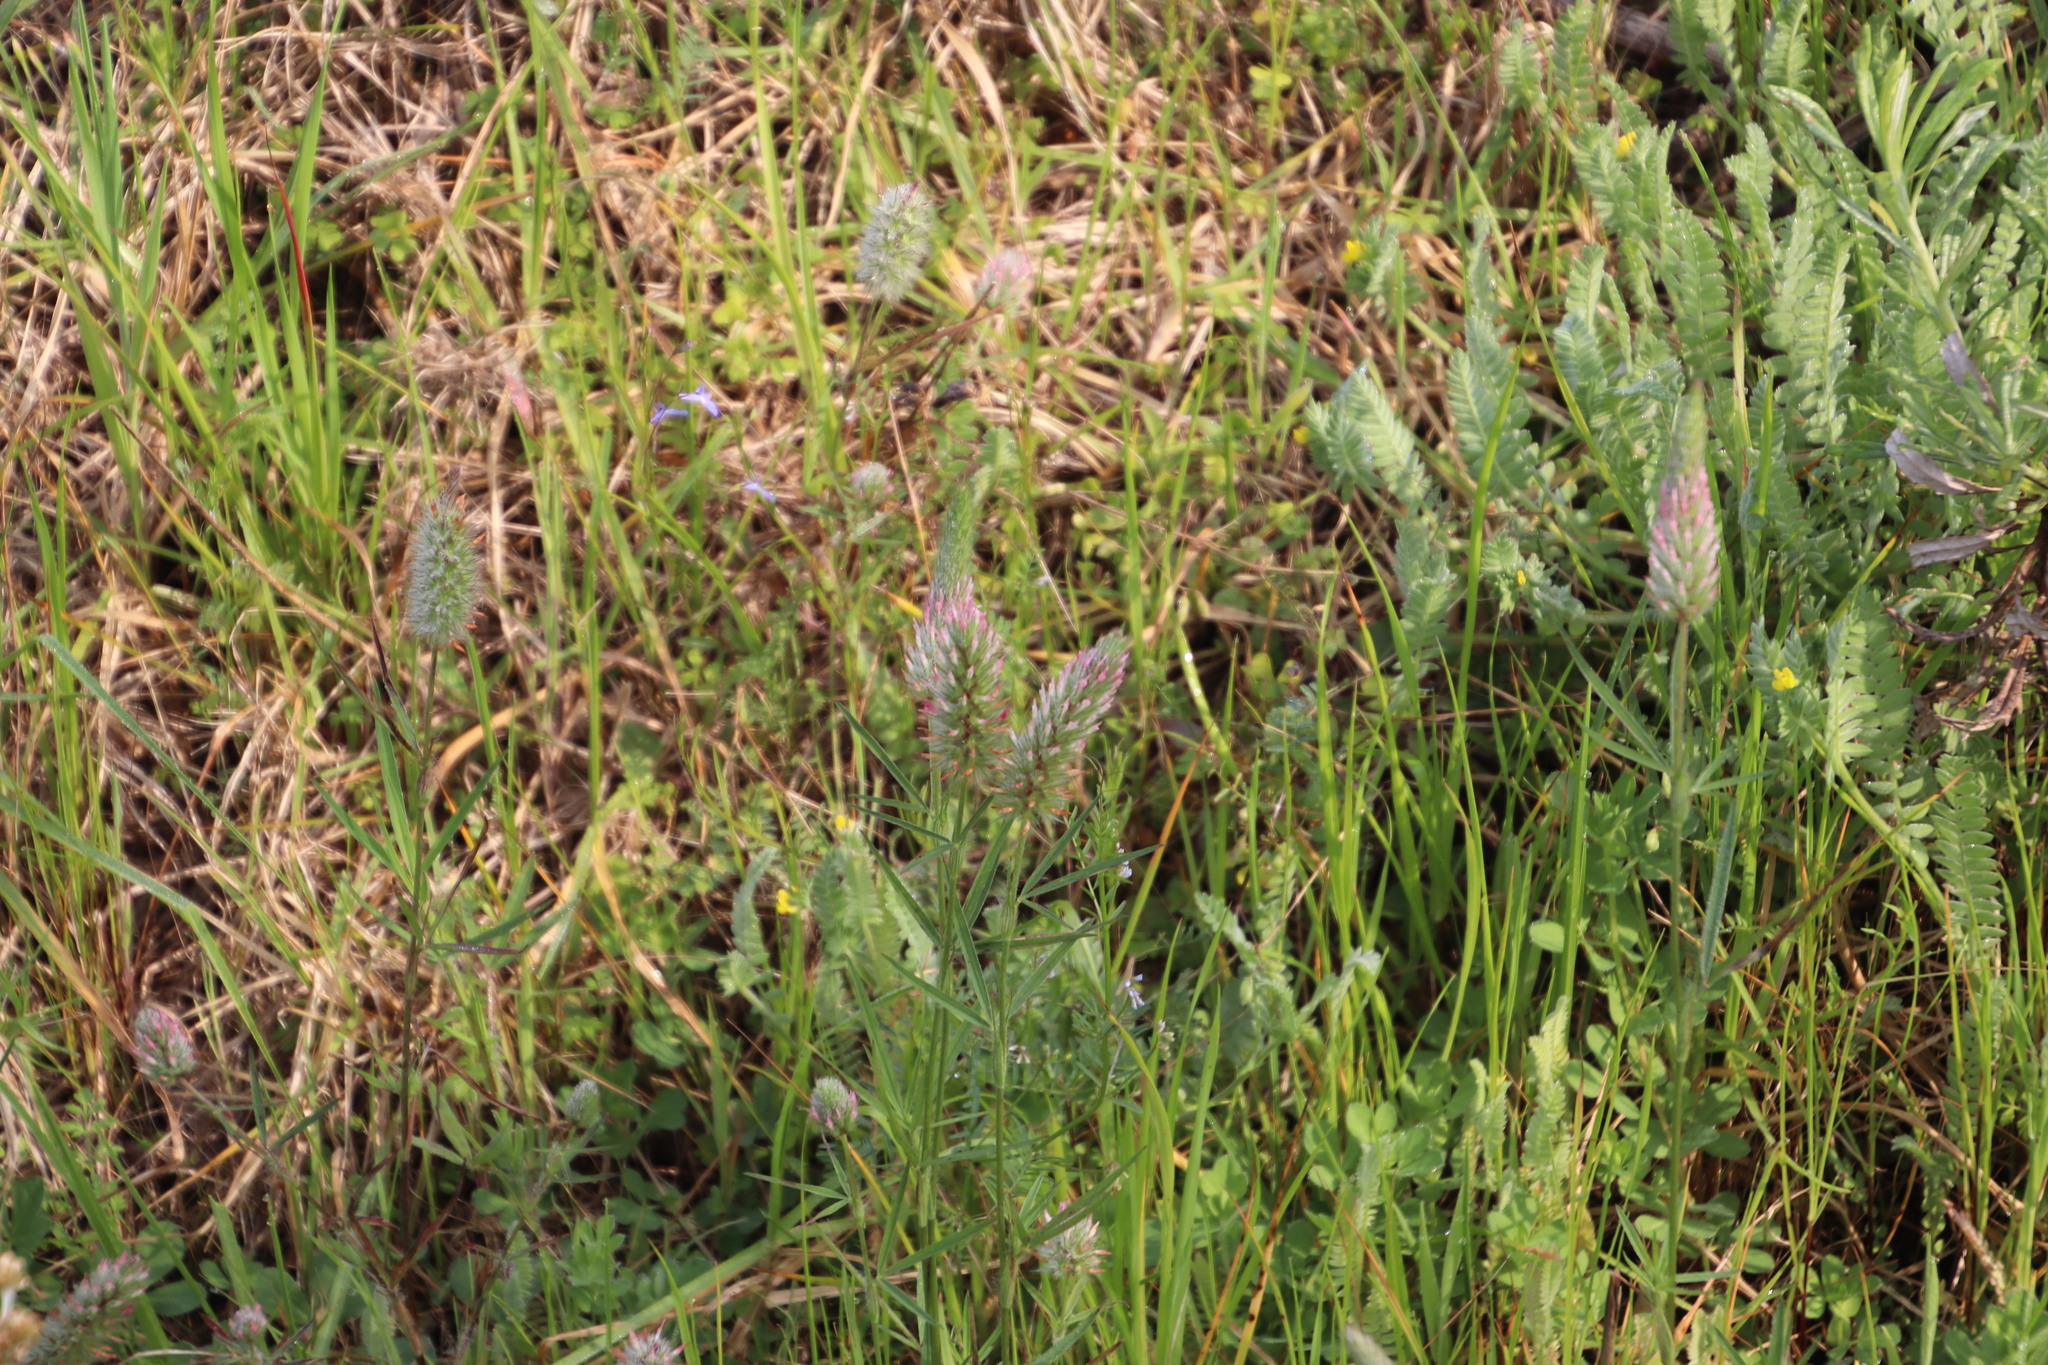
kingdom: Plantae
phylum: Tracheophyta
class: Magnoliopsida
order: Fabales
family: Fabaceae
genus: Trifolium
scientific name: Trifolium angustifolium
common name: Narrow clover
